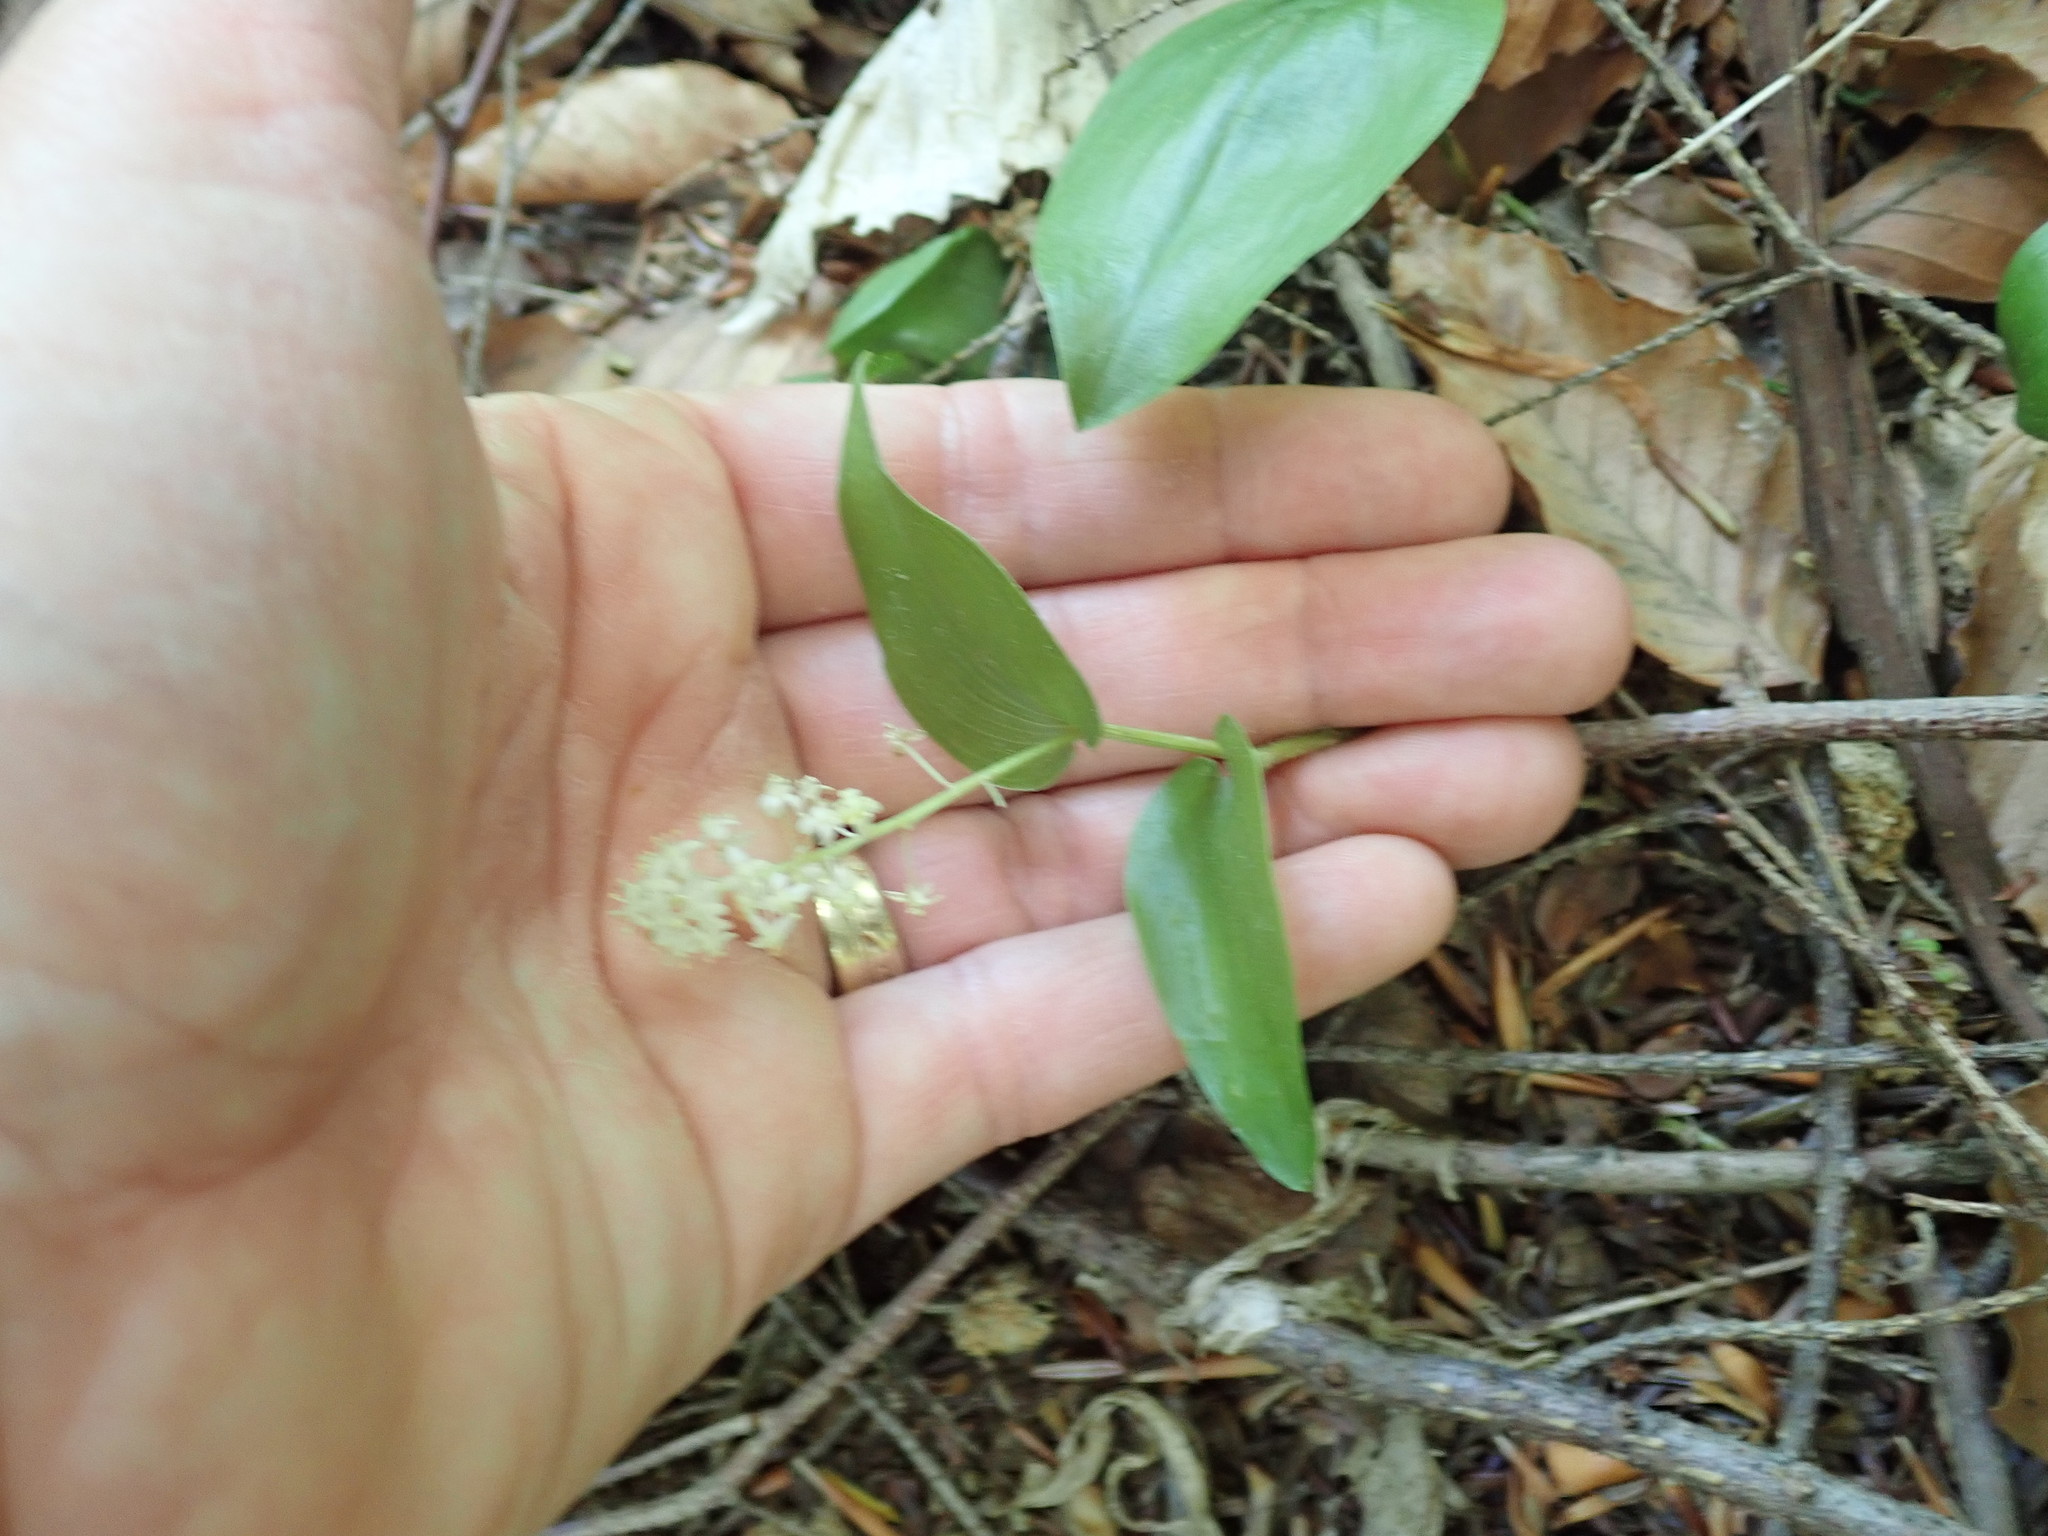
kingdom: Plantae
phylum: Tracheophyta
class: Liliopsida
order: Asparagales
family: Asparagaceae
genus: Maianthemum
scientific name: Maianthemum canadense
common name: False lily-of-the-valley
